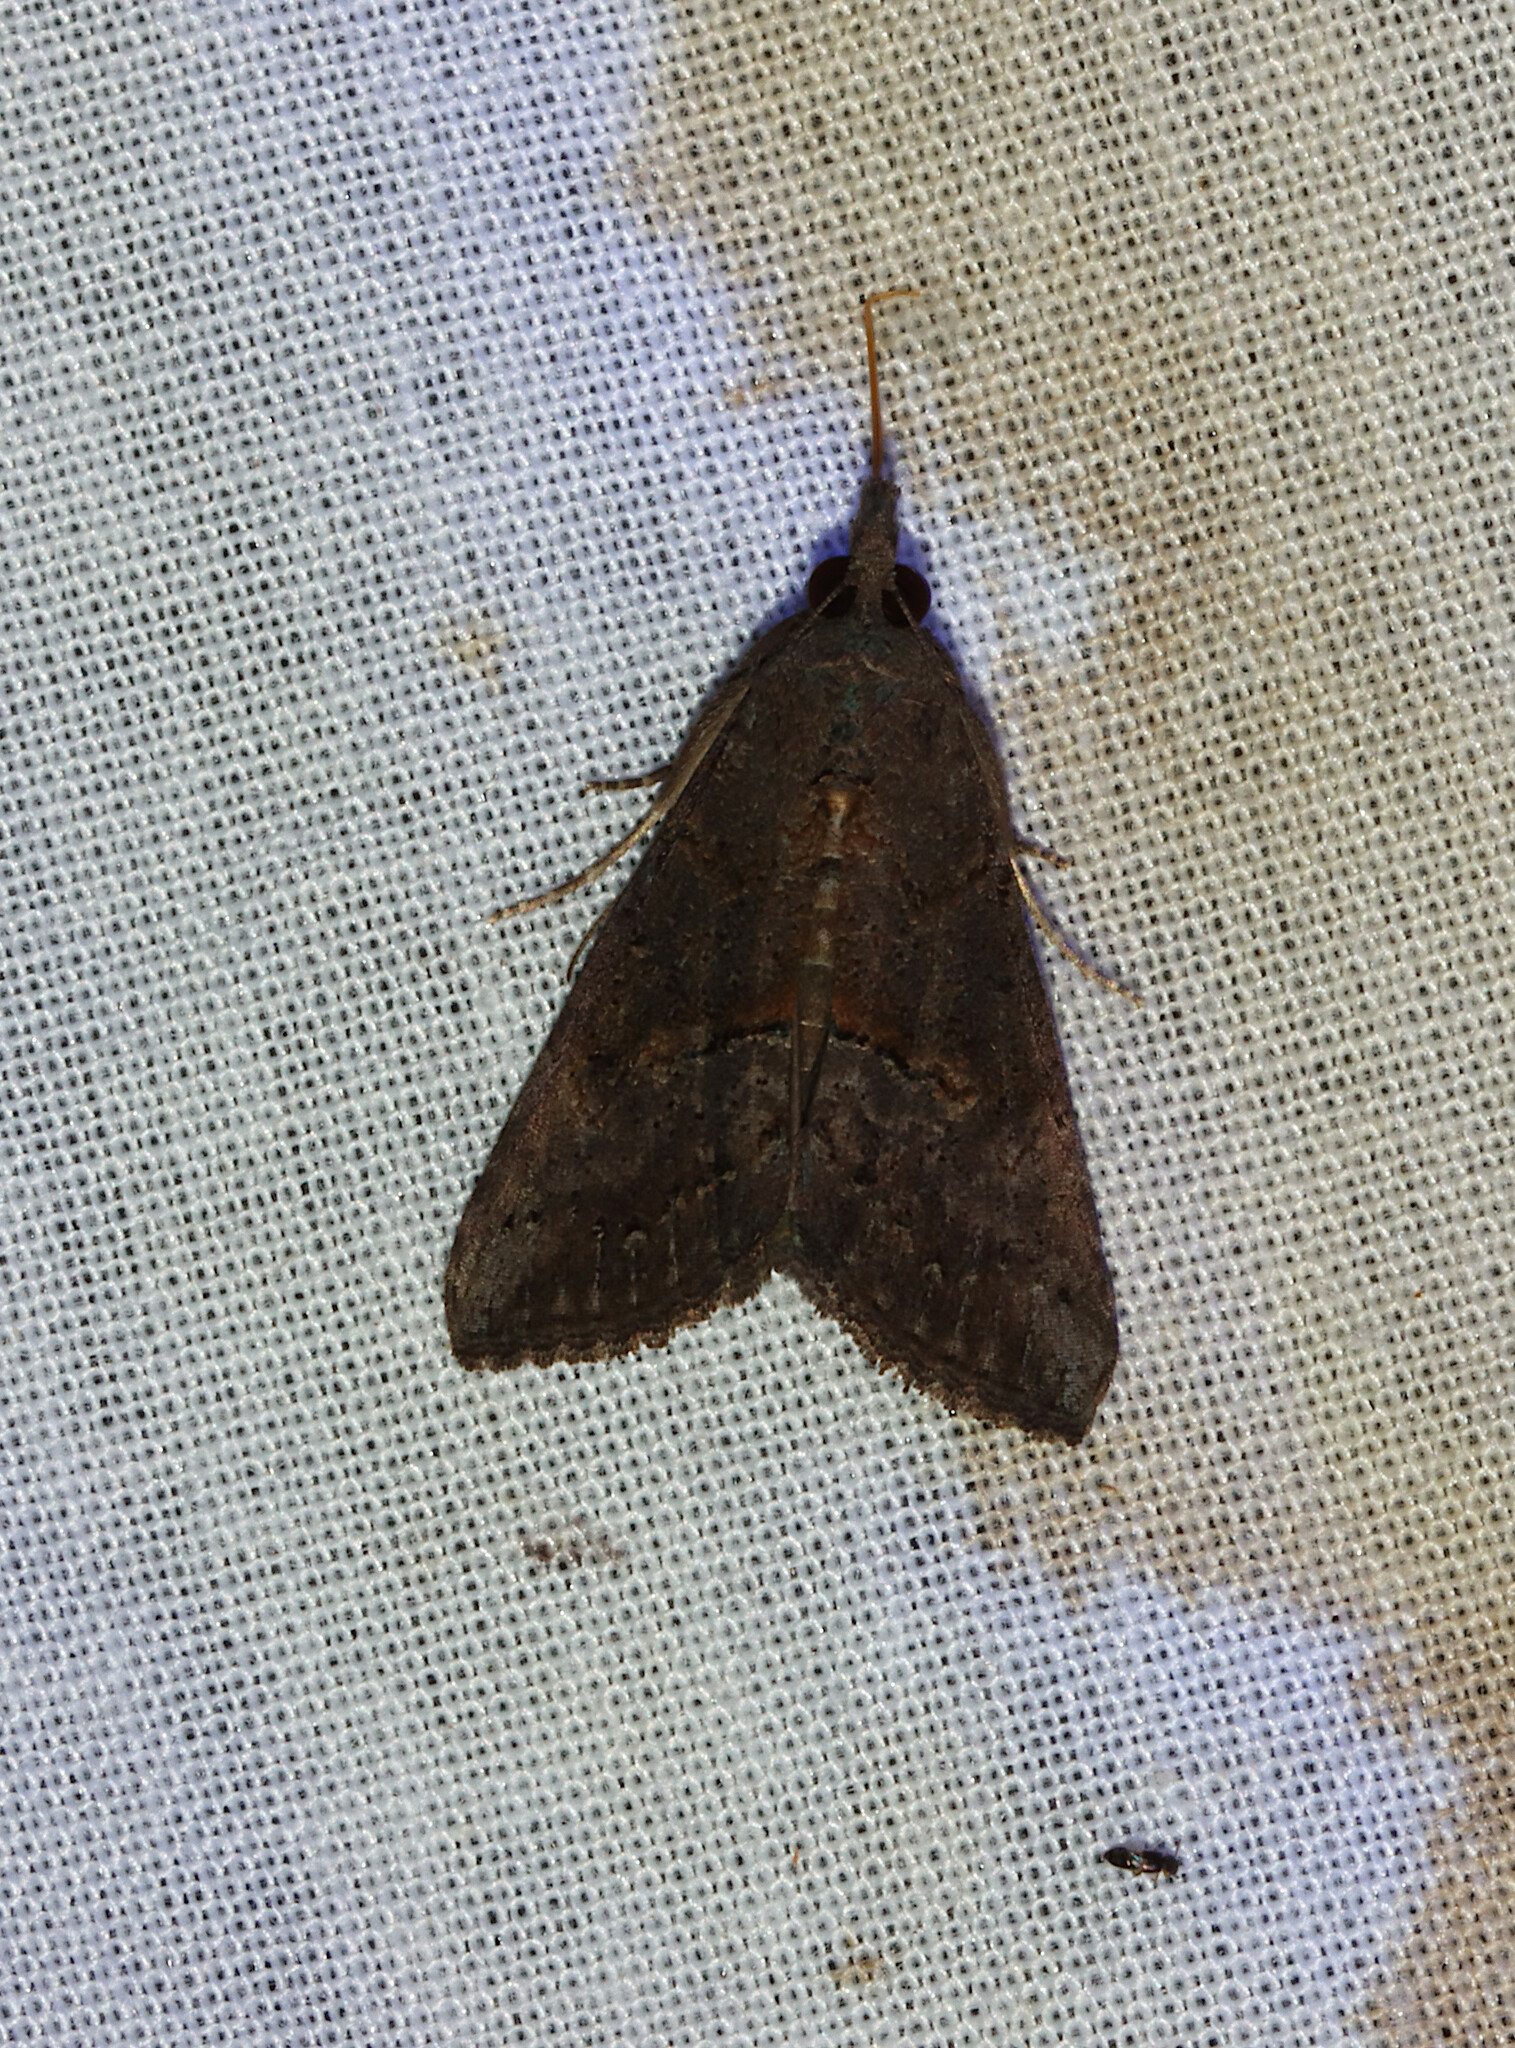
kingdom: Animalia
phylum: Arthropoda
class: Insecta
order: Lepidoptera
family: Erebidae
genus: Hypena
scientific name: Hypena scabra
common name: Green cloverworm
